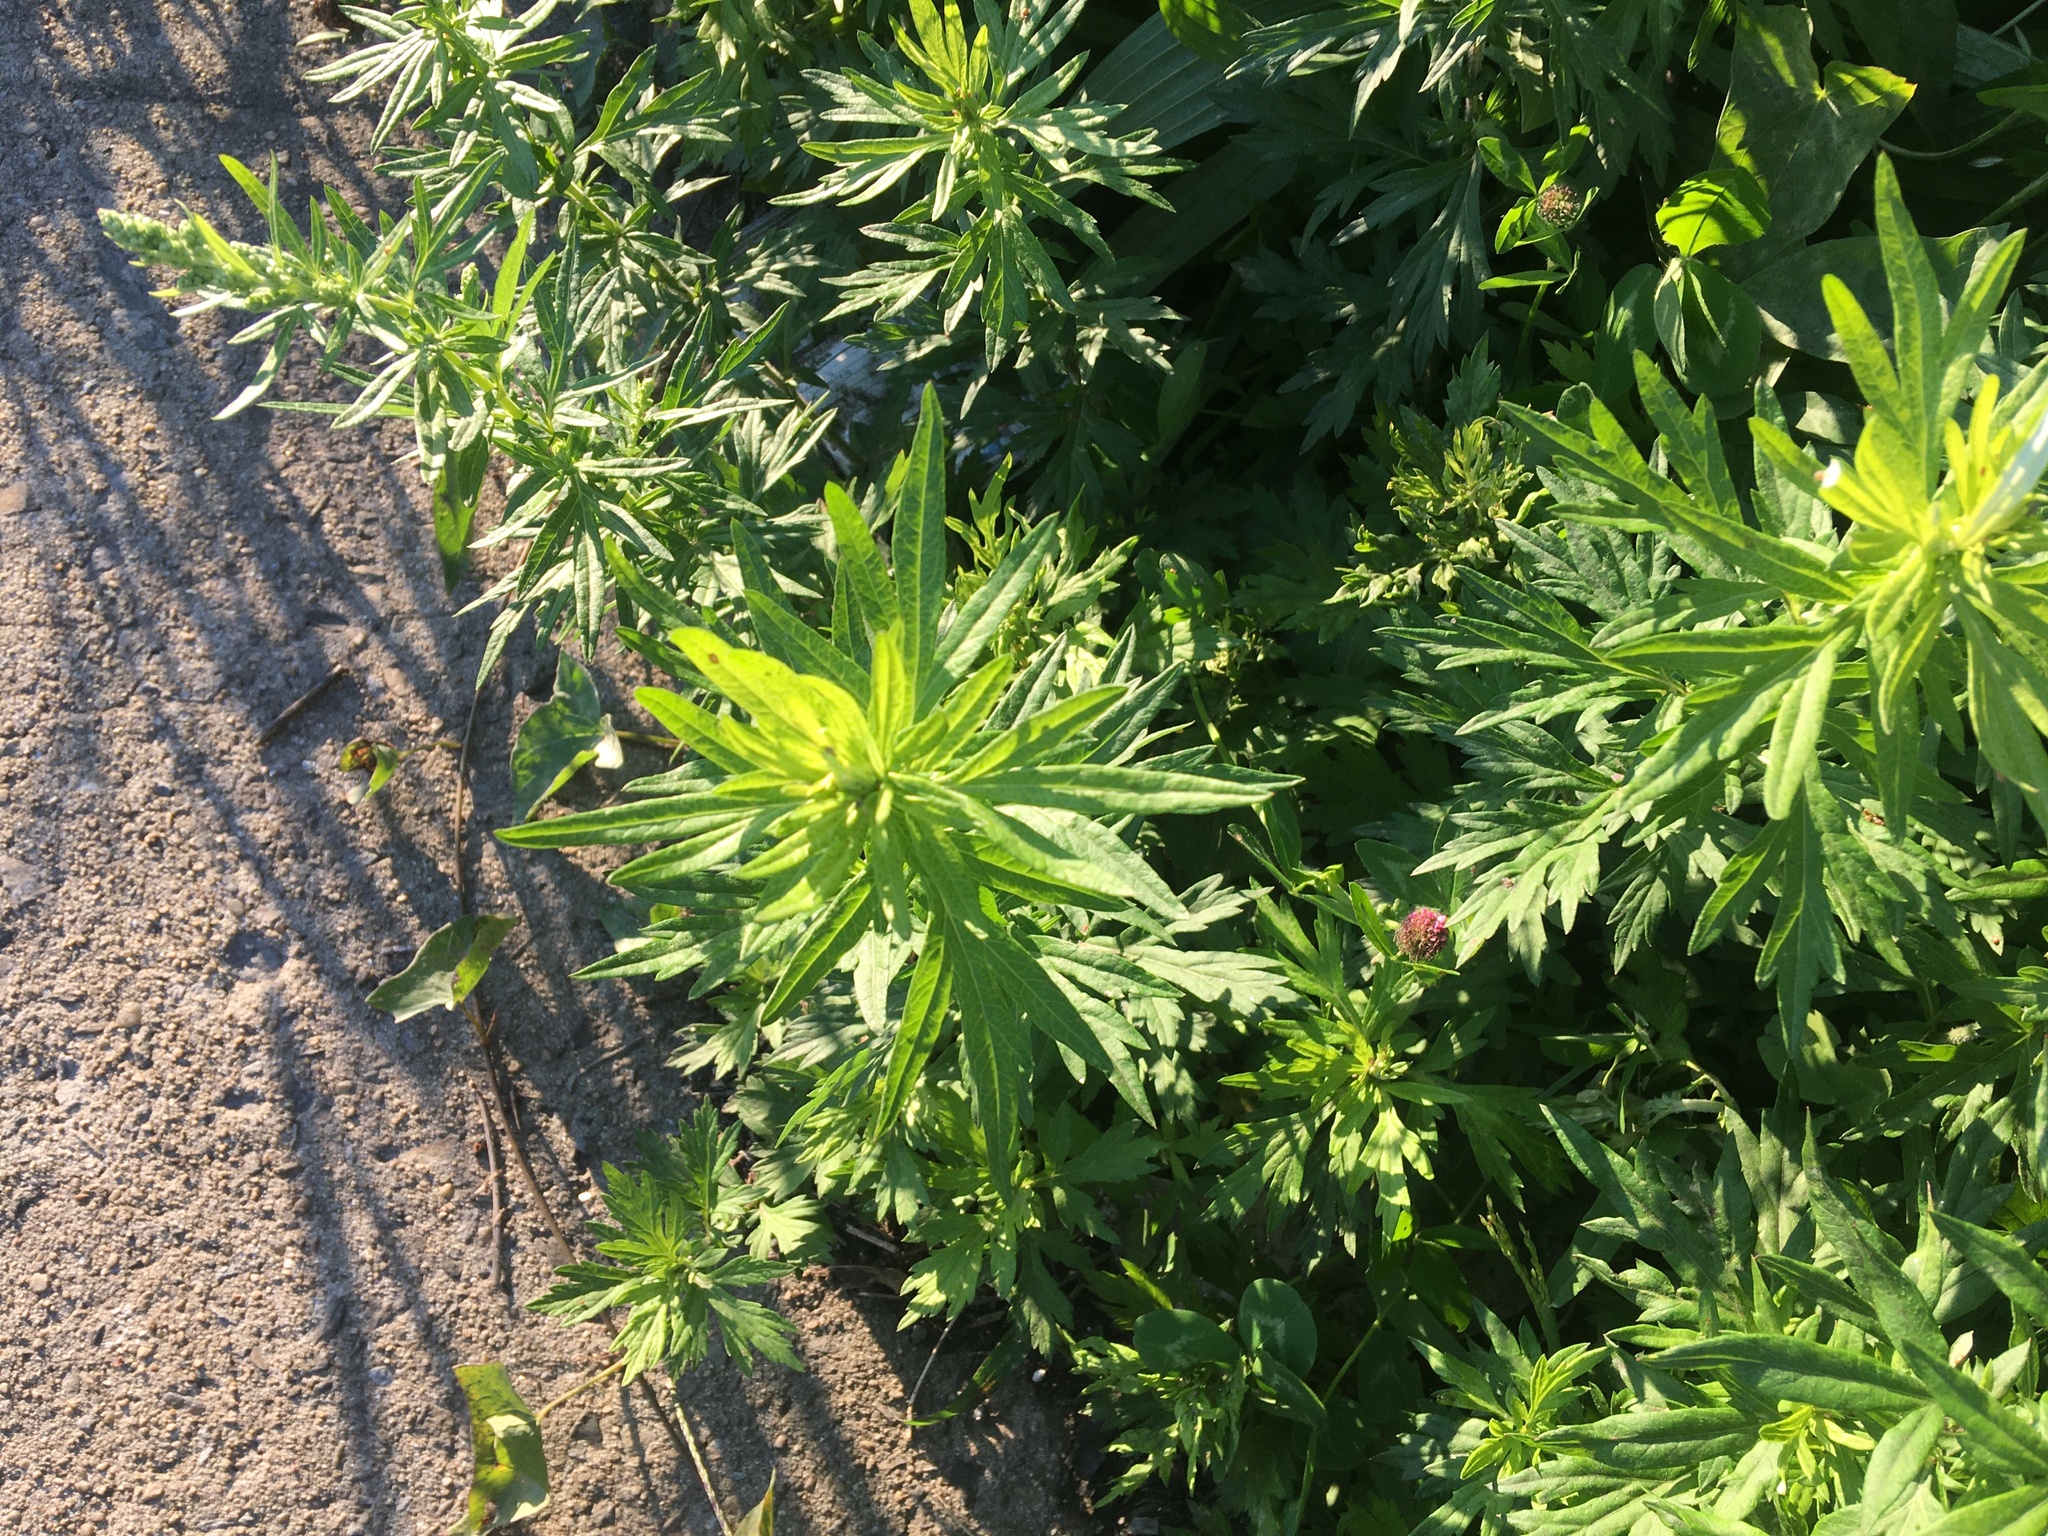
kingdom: Plantae
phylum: Tracheophyta
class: Magnoliopsida
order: Asterales
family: Asteraceae
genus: Artemisia
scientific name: Artemisia vulgaris
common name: Mugwort
